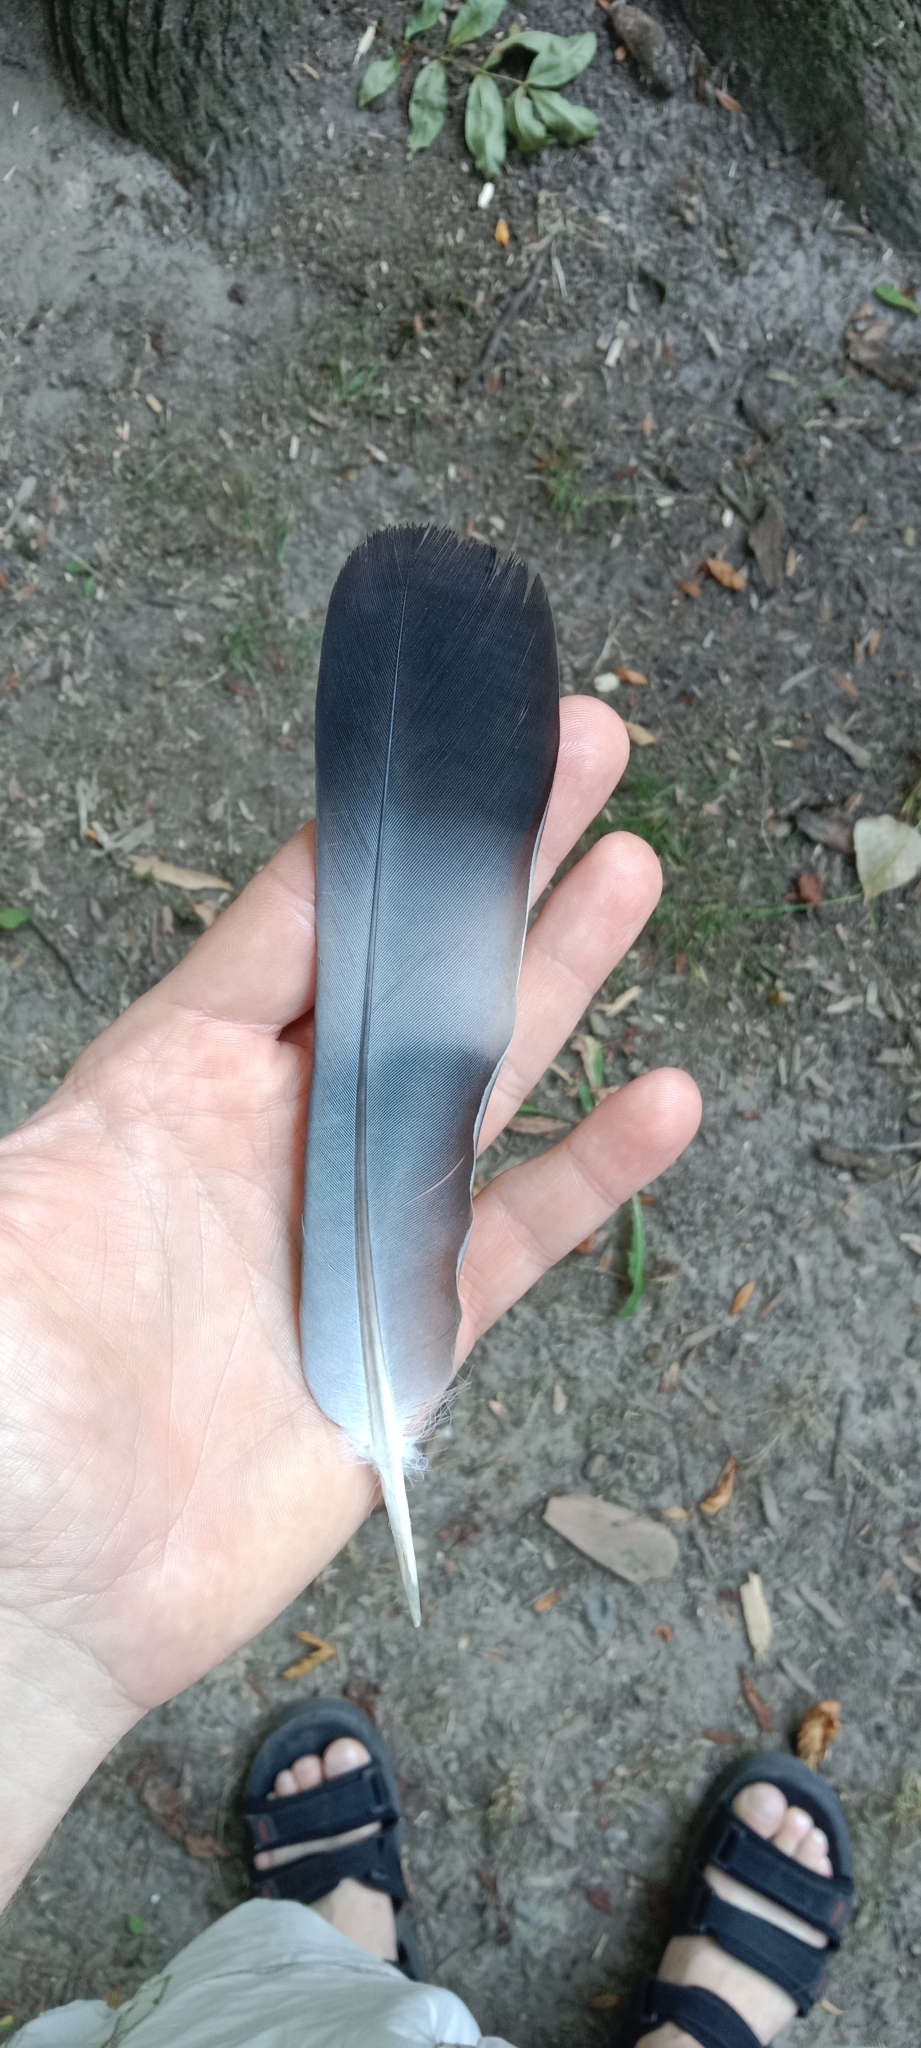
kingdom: Animalia
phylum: Chordata
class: Aves
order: Columbiformes
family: Columbidae
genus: Columba
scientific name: Columba palumbus
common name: Common wood pigeon
